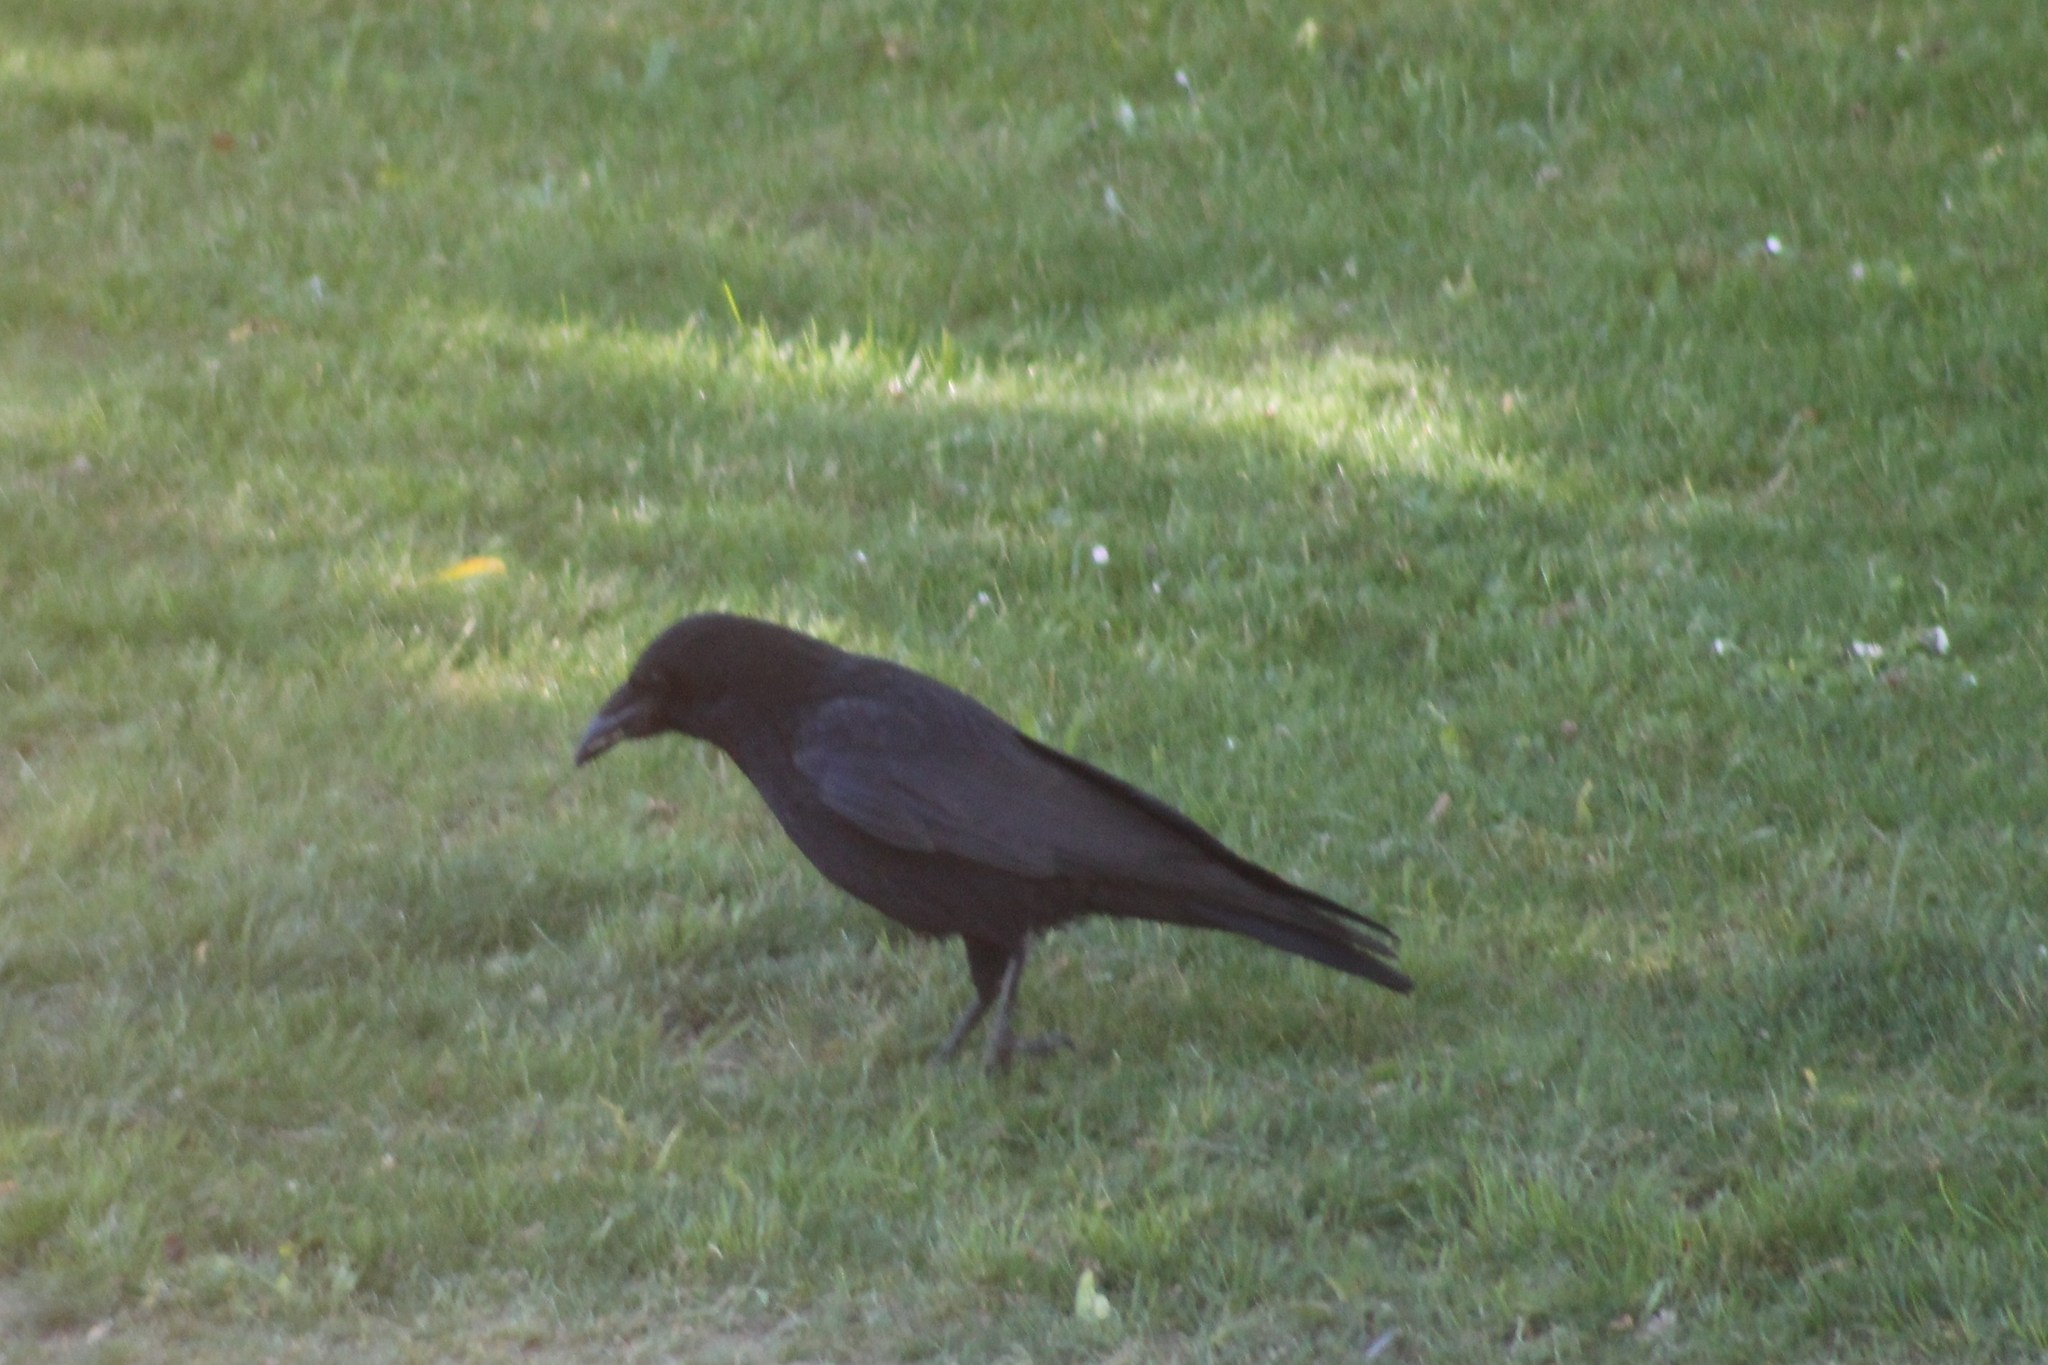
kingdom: Animalia
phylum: Chordata
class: Aves
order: Passeriformes
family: Corvidae
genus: Corvus
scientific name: Corvus corone
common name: Carrion crow
